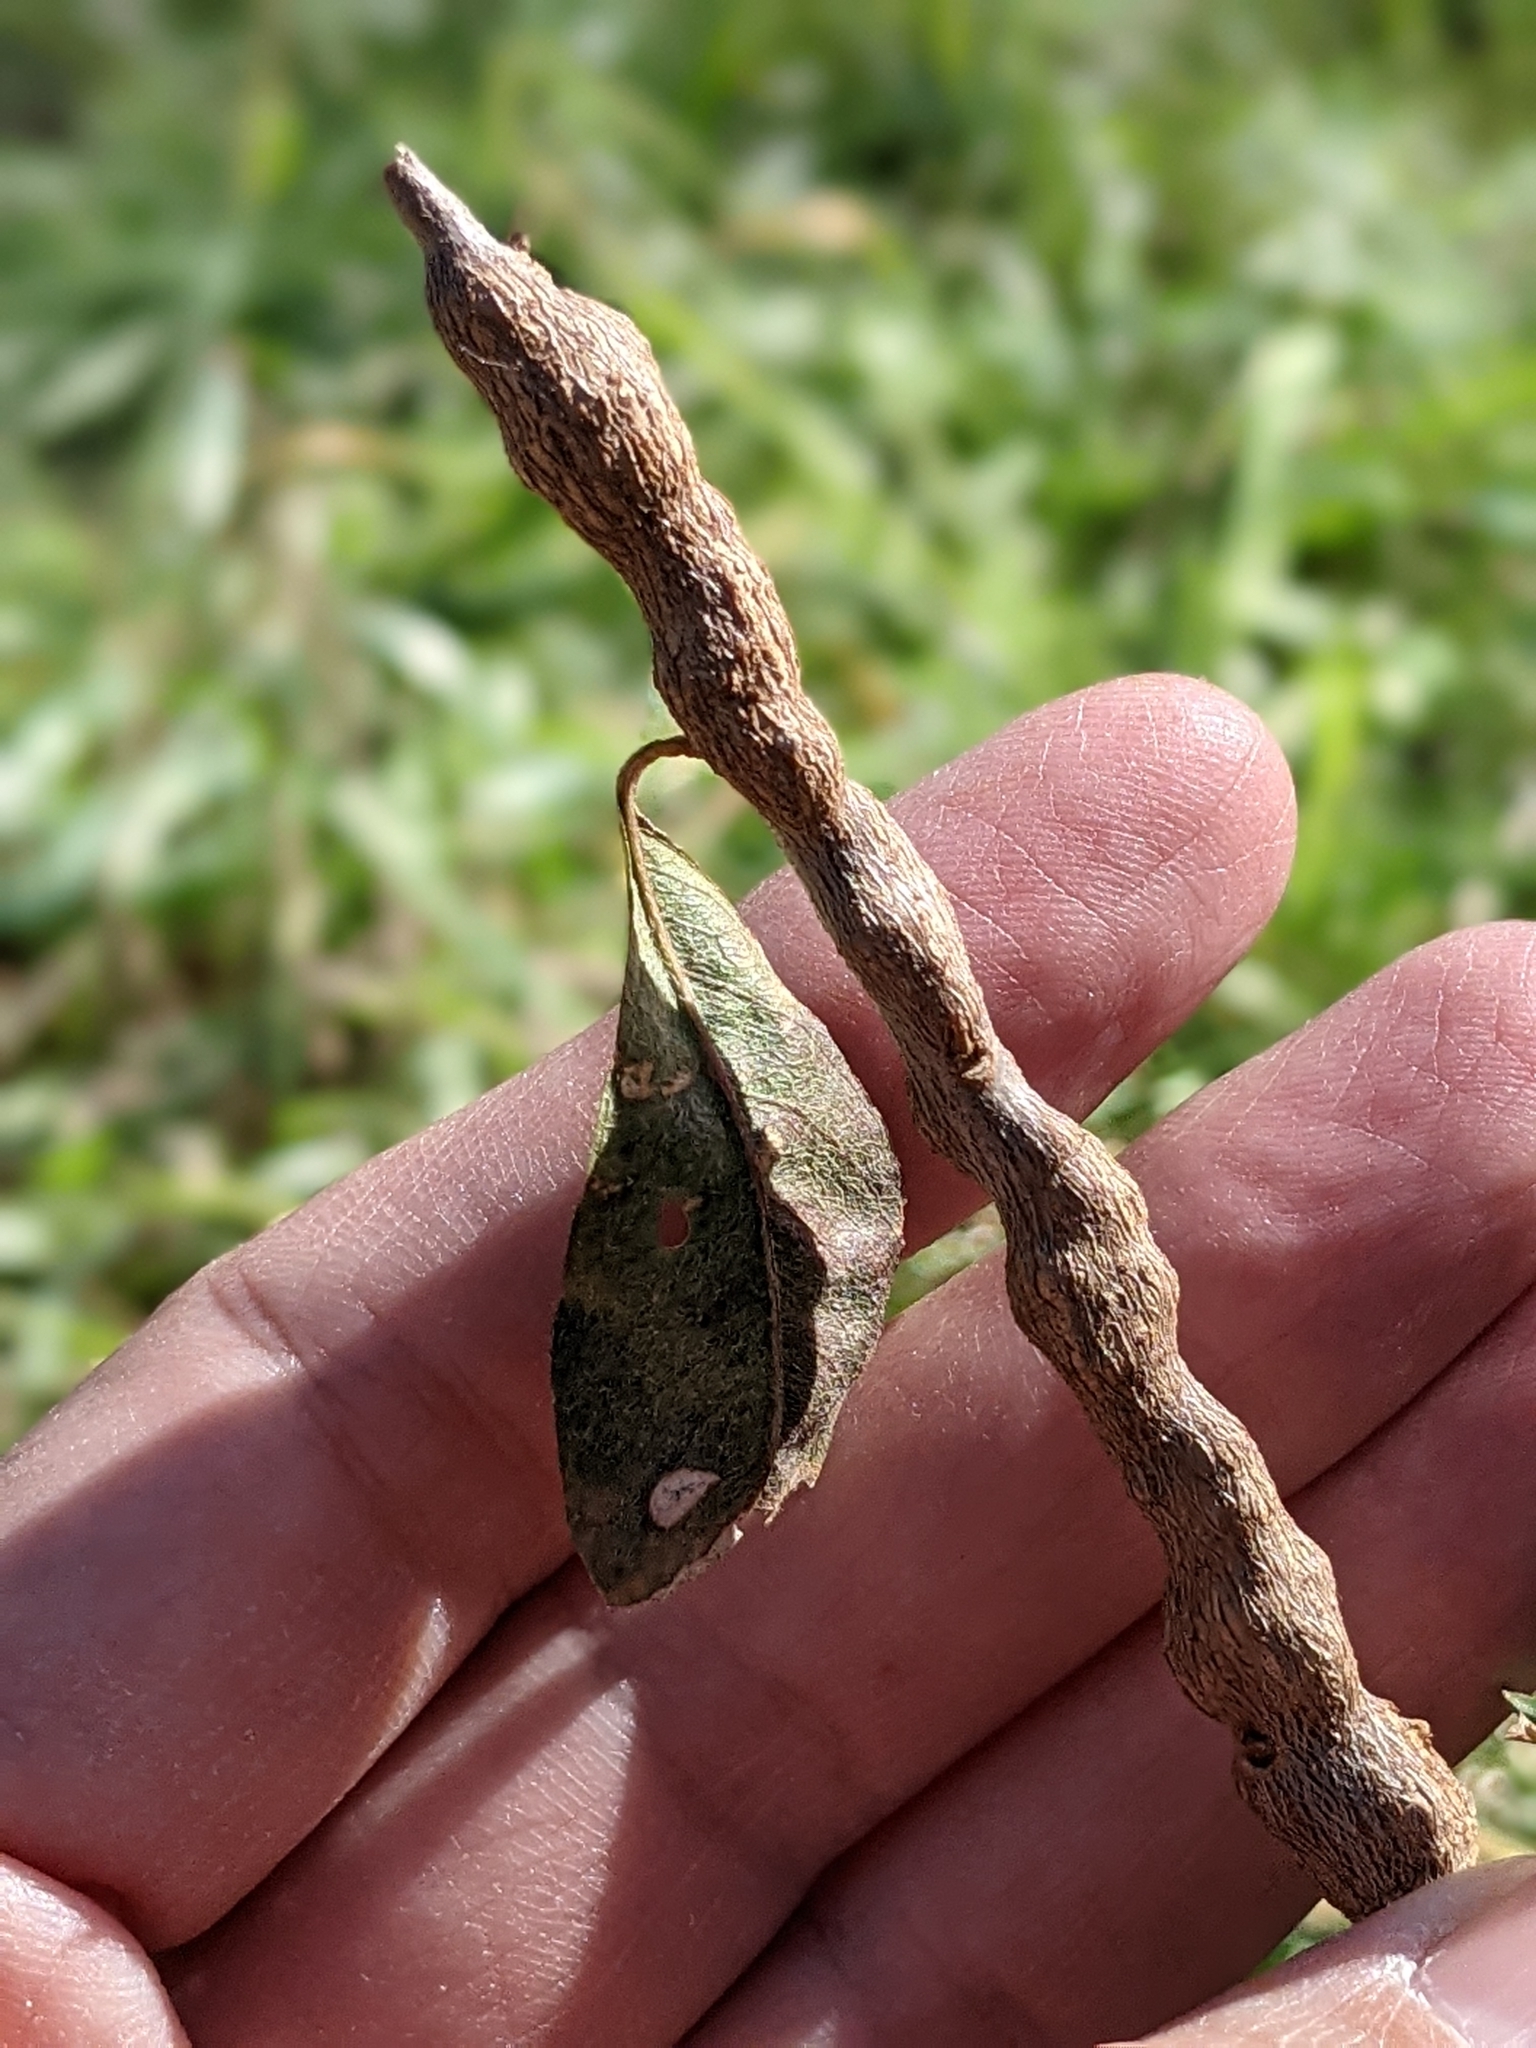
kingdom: Animalia
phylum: Arthropoda
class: Insecta
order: Diptera
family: Cecidomyiidae
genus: Bruggmanniella
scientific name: Bruggmanniella bumeliae
